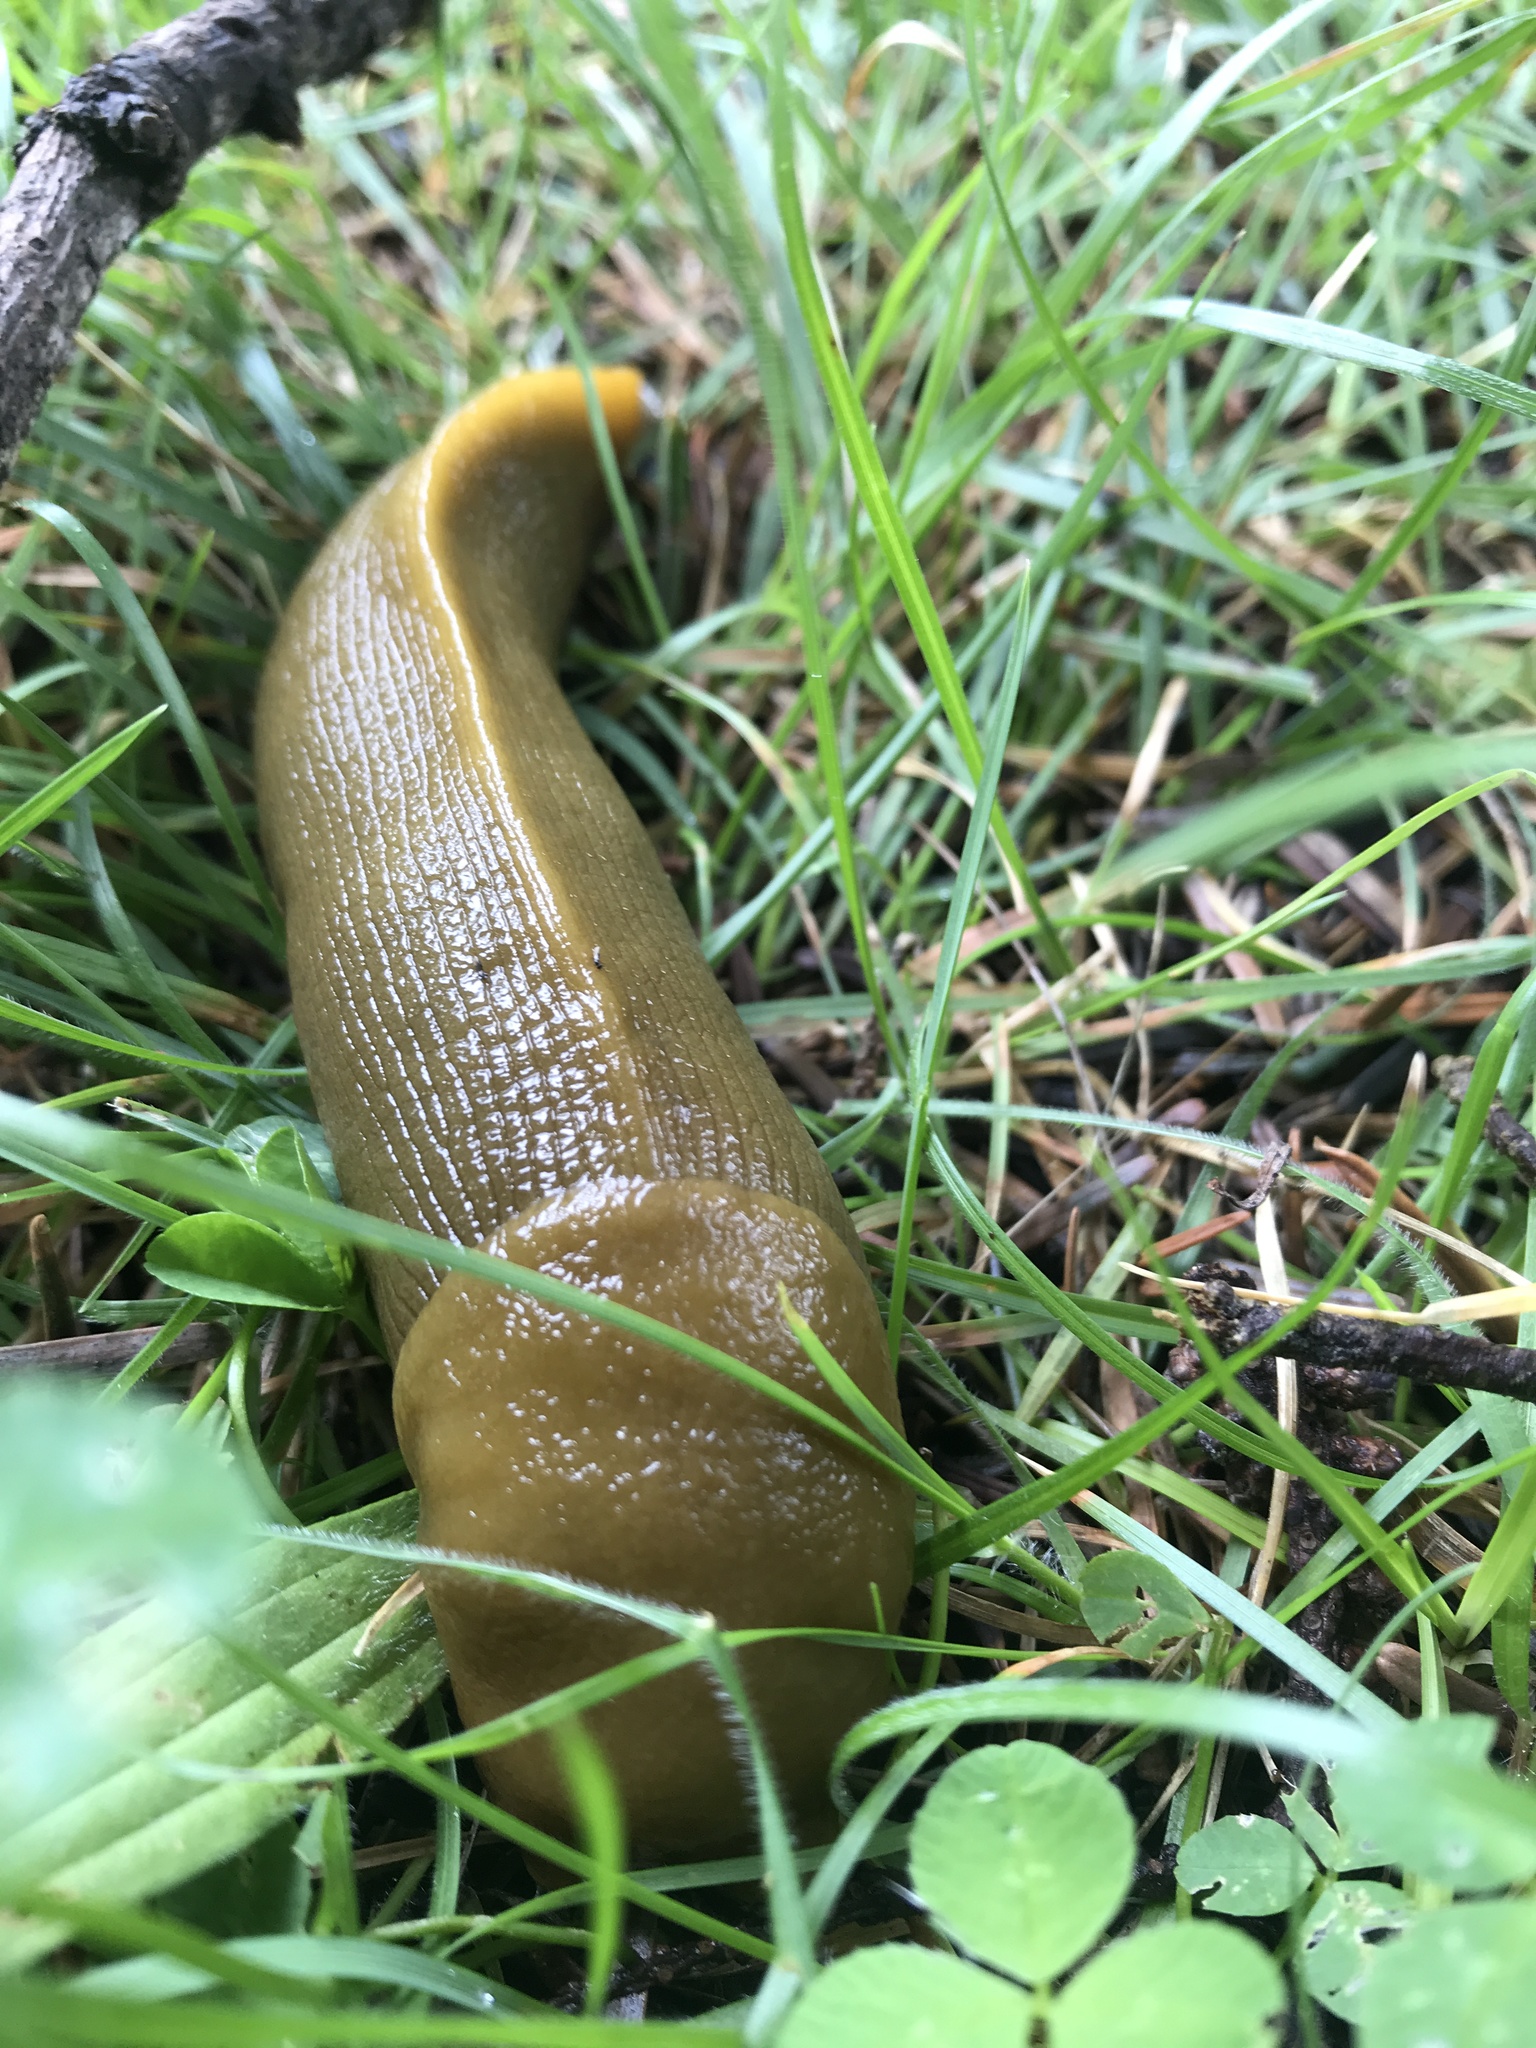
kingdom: Animalia
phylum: Mollusca
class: Gastropoda
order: Stylommatophora
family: Ariolimacidae
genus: Ariolimax
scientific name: Ariolimax buttoni
